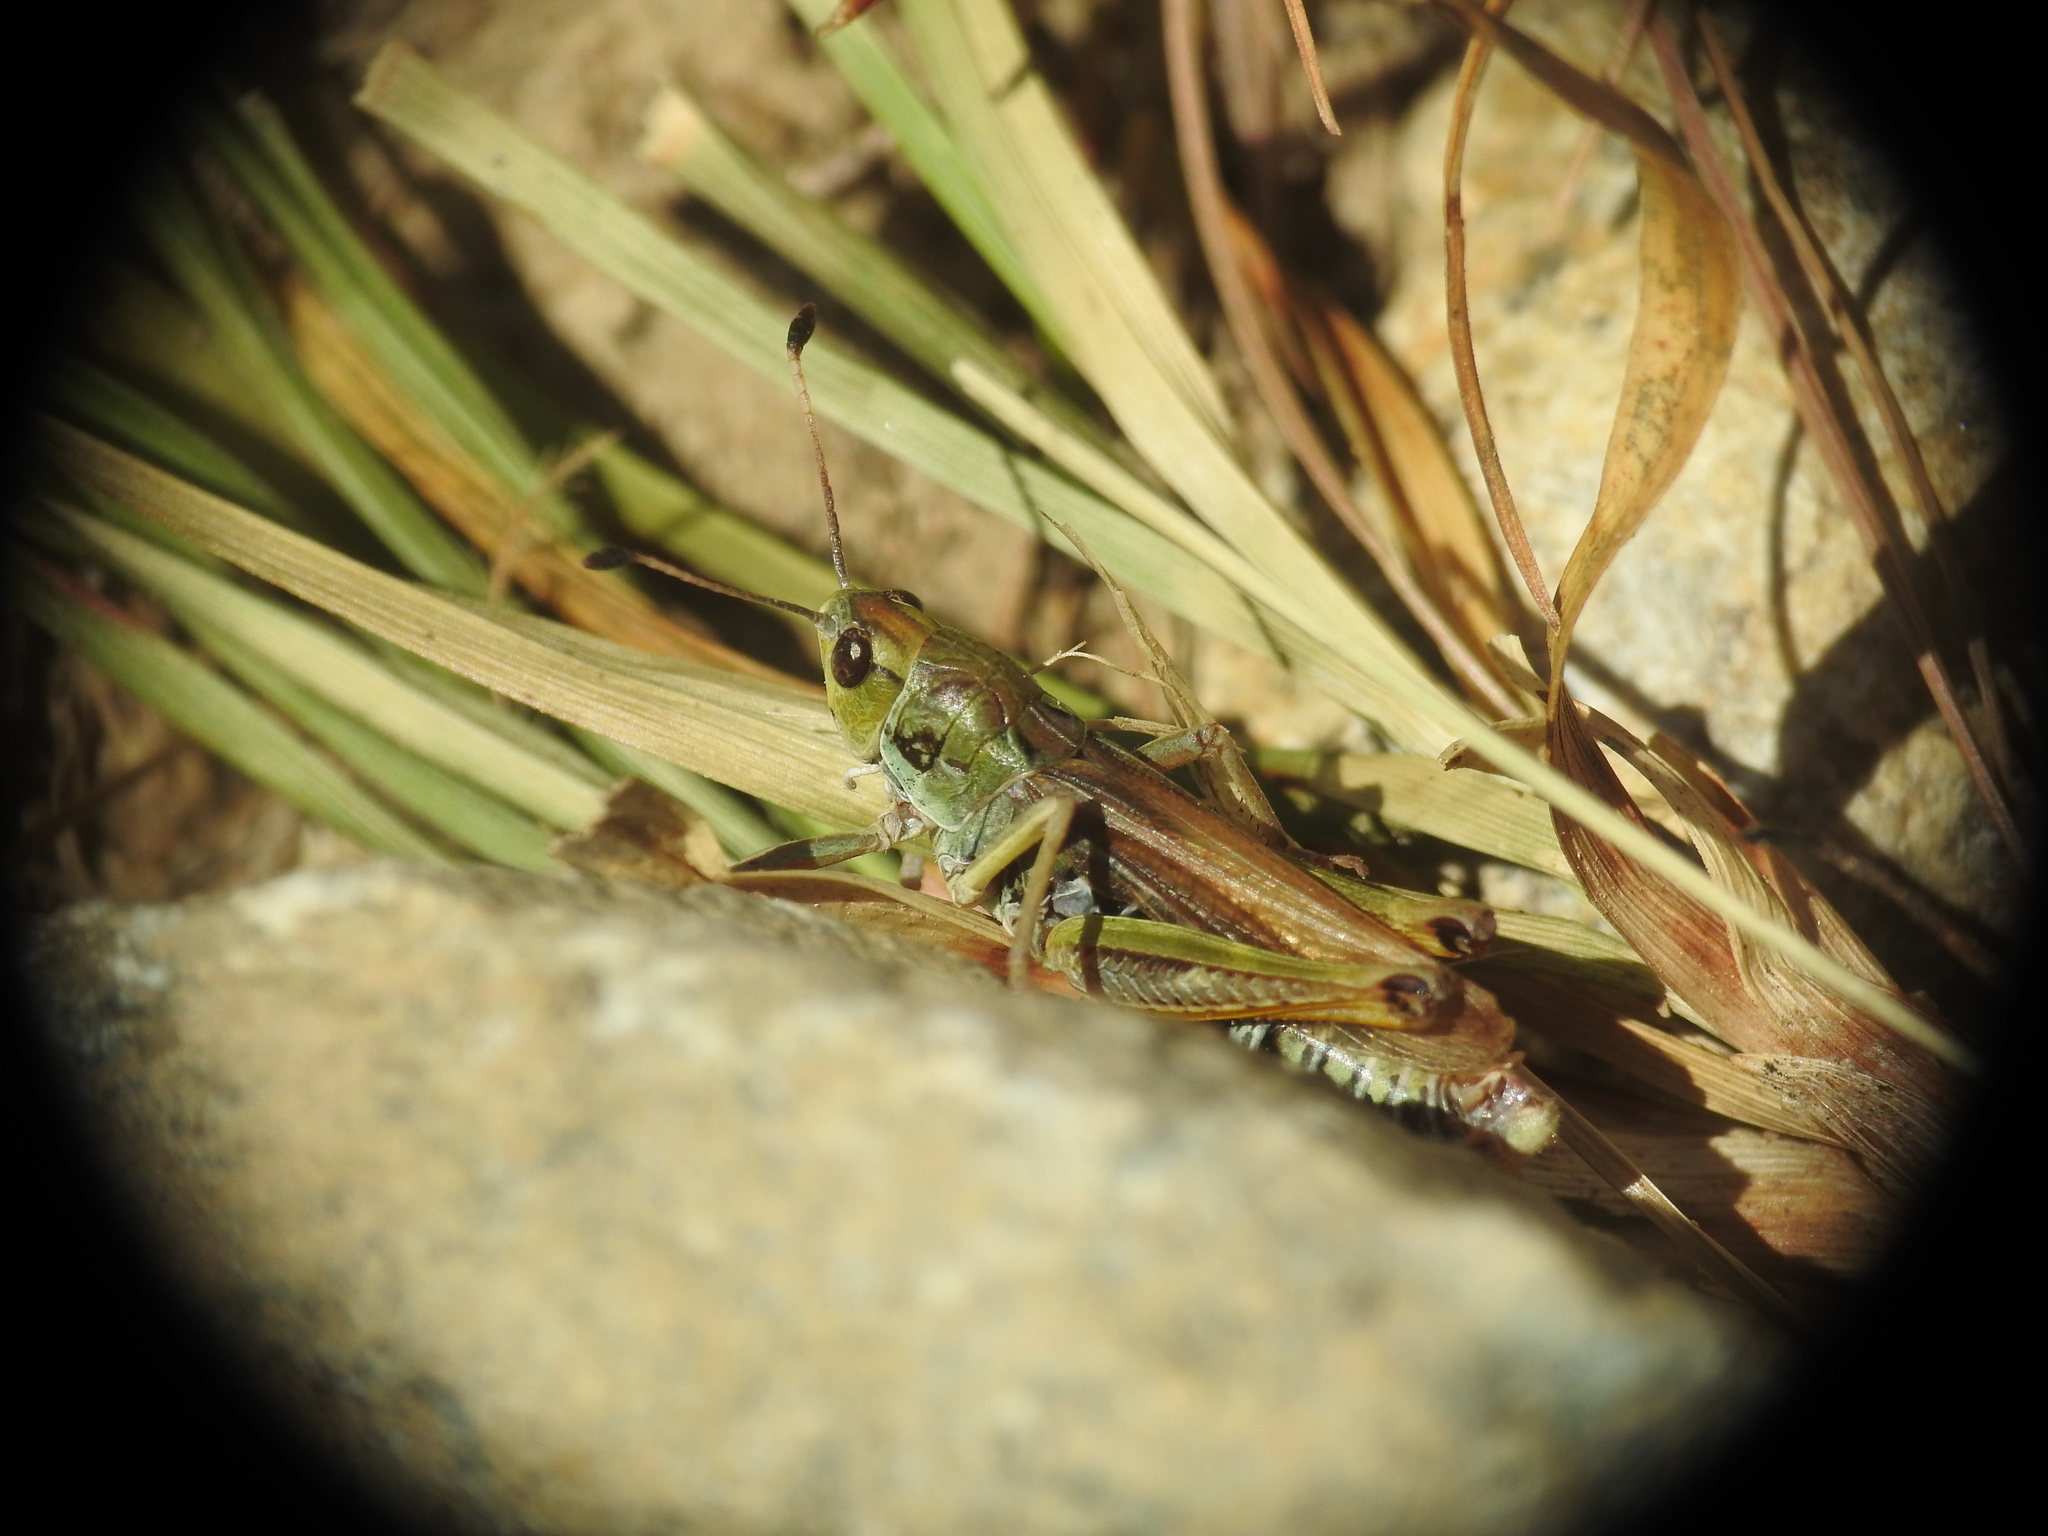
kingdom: Animalia
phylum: Arthropoda
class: Insecta
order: Orthoptera
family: Acrididae
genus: Gomphocerus
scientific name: Gomphocerus sibiricus
